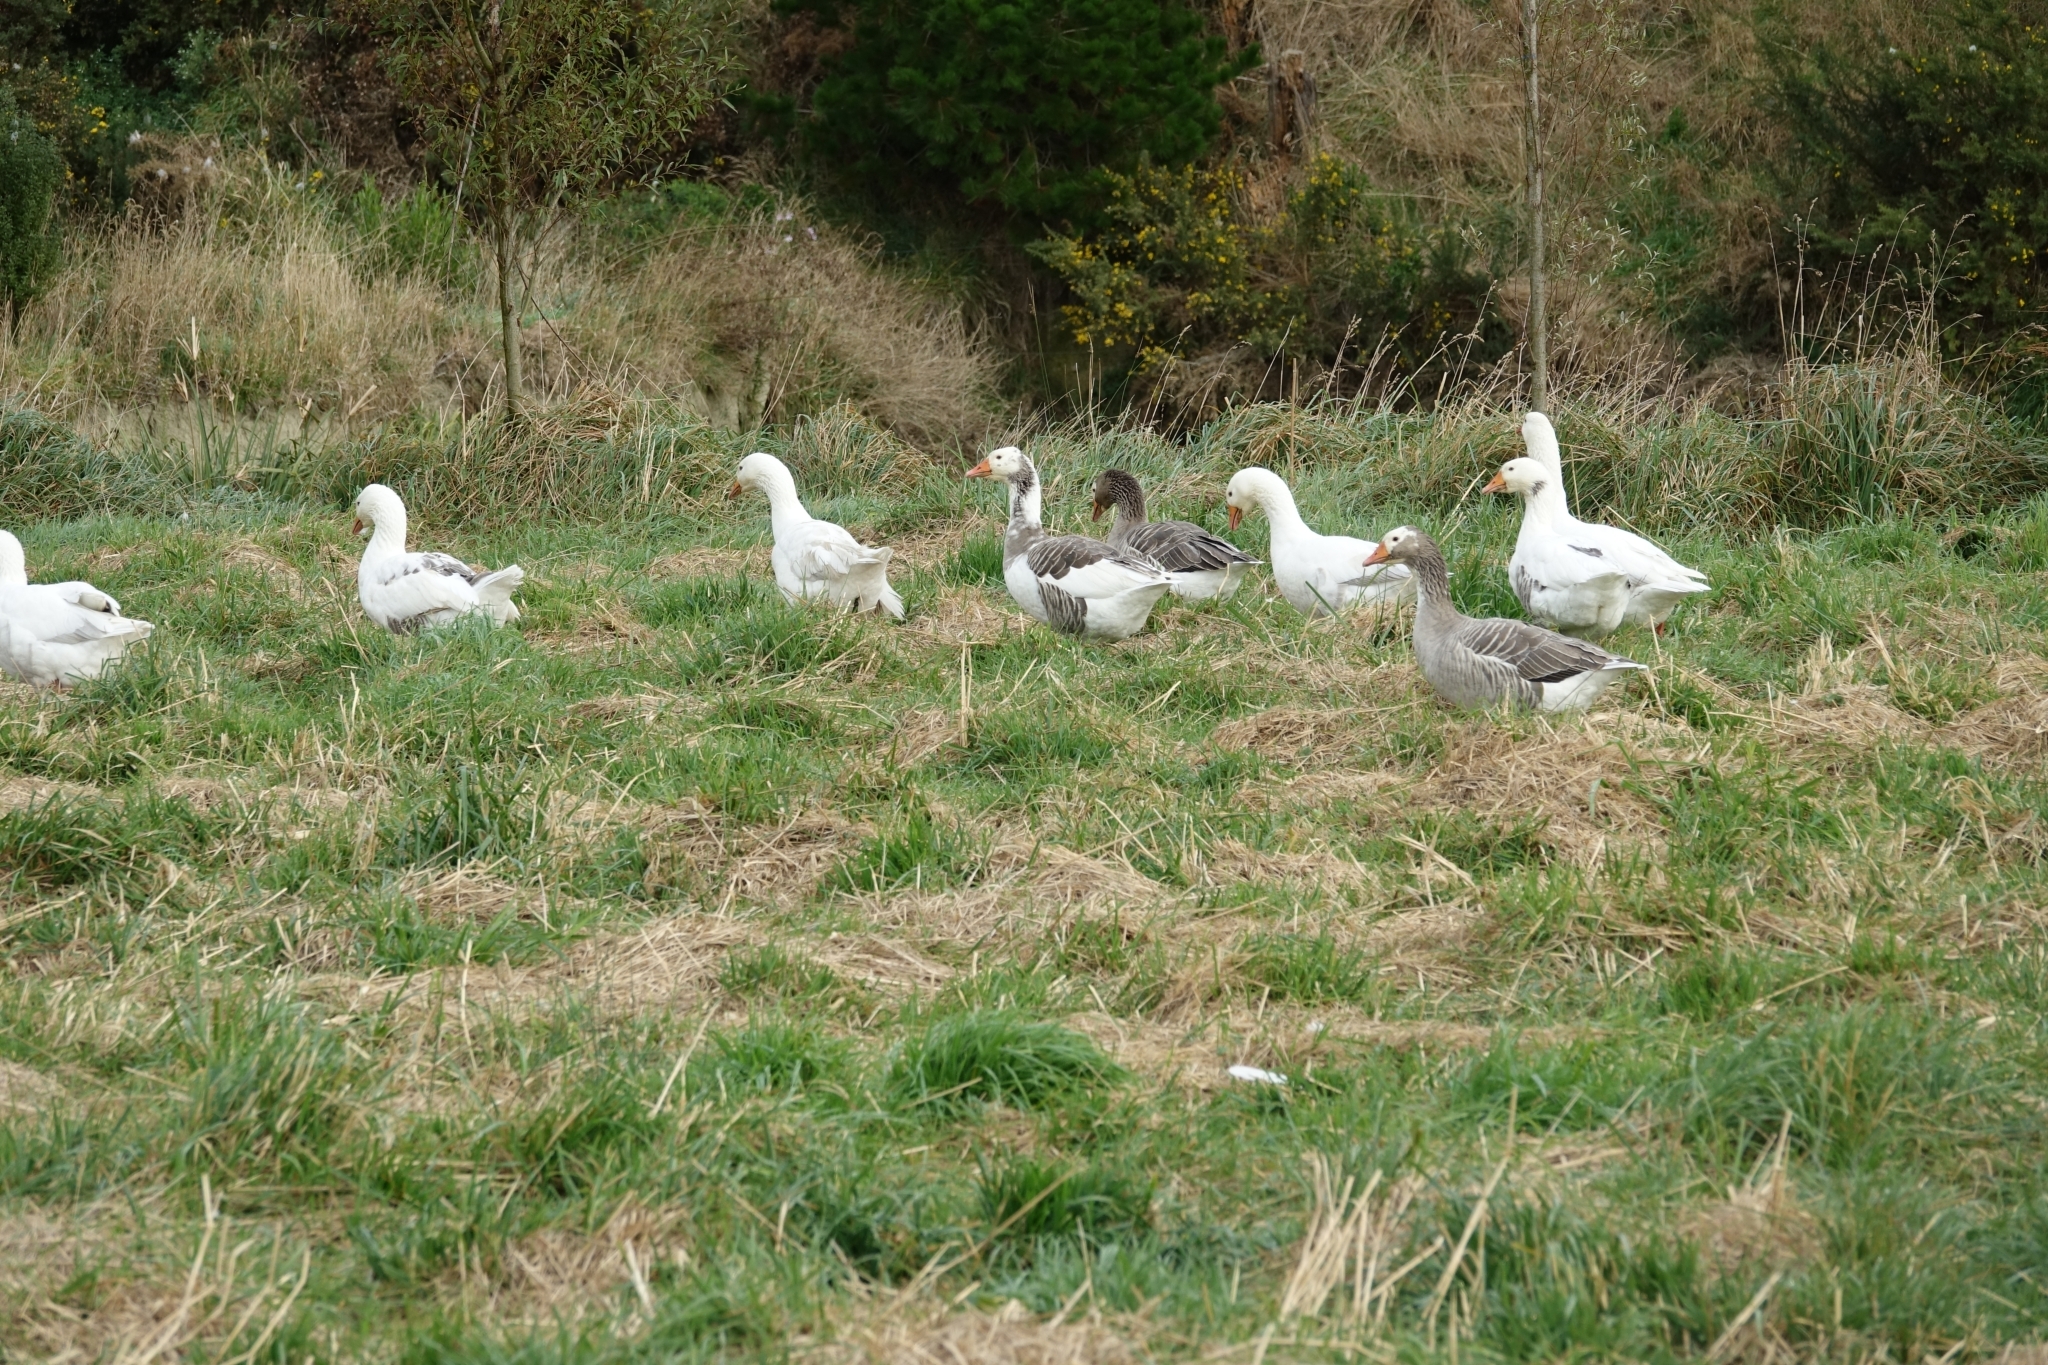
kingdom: Animalia
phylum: Chordata
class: Aves
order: Anseriformes
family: Anatidae
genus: Anser
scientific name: Anser anser
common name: Greylag goose
